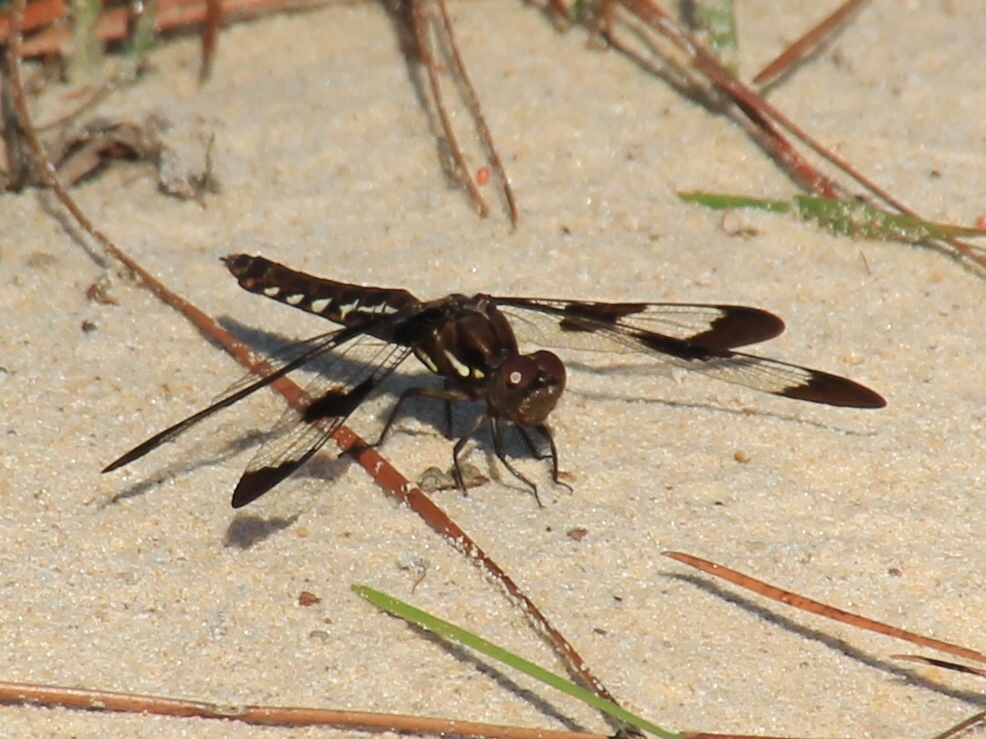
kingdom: Animalia
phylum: Arthropoda
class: Insecta
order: Odonata
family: Libellulidae
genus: Plathemis
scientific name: Plathemis lydia
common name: Common whitetail
